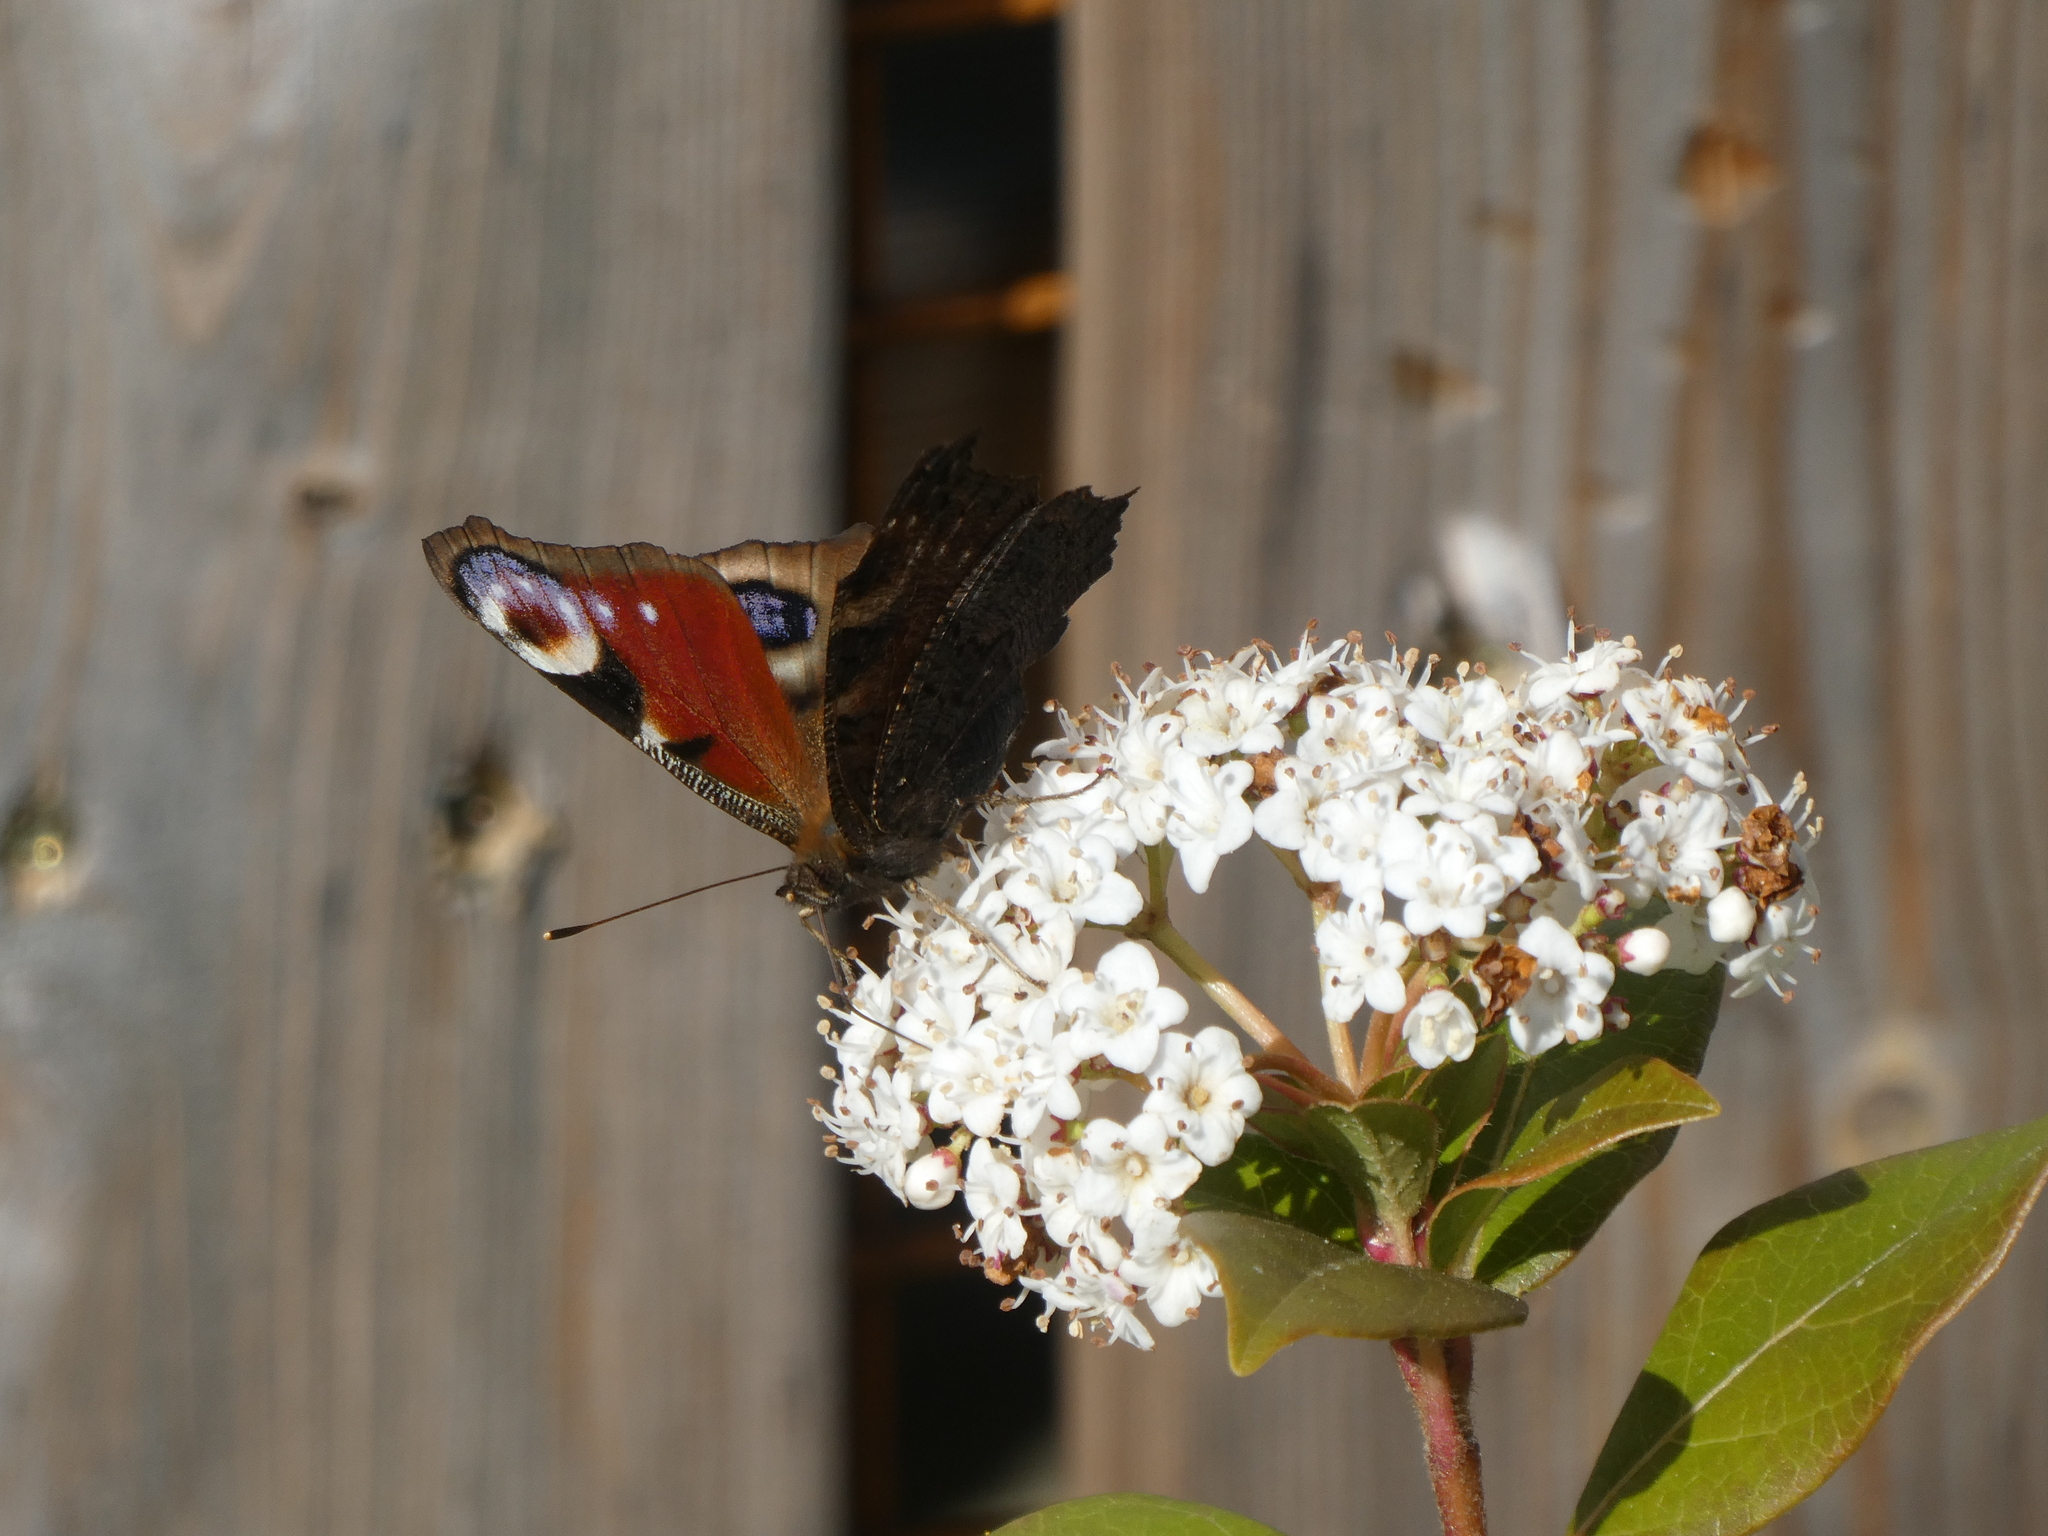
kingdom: Animalia
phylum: Arthropoda
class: Insecta
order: Lepidoptera
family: Nymphalidae
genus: Aglais
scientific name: Aglais io
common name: Peacock
